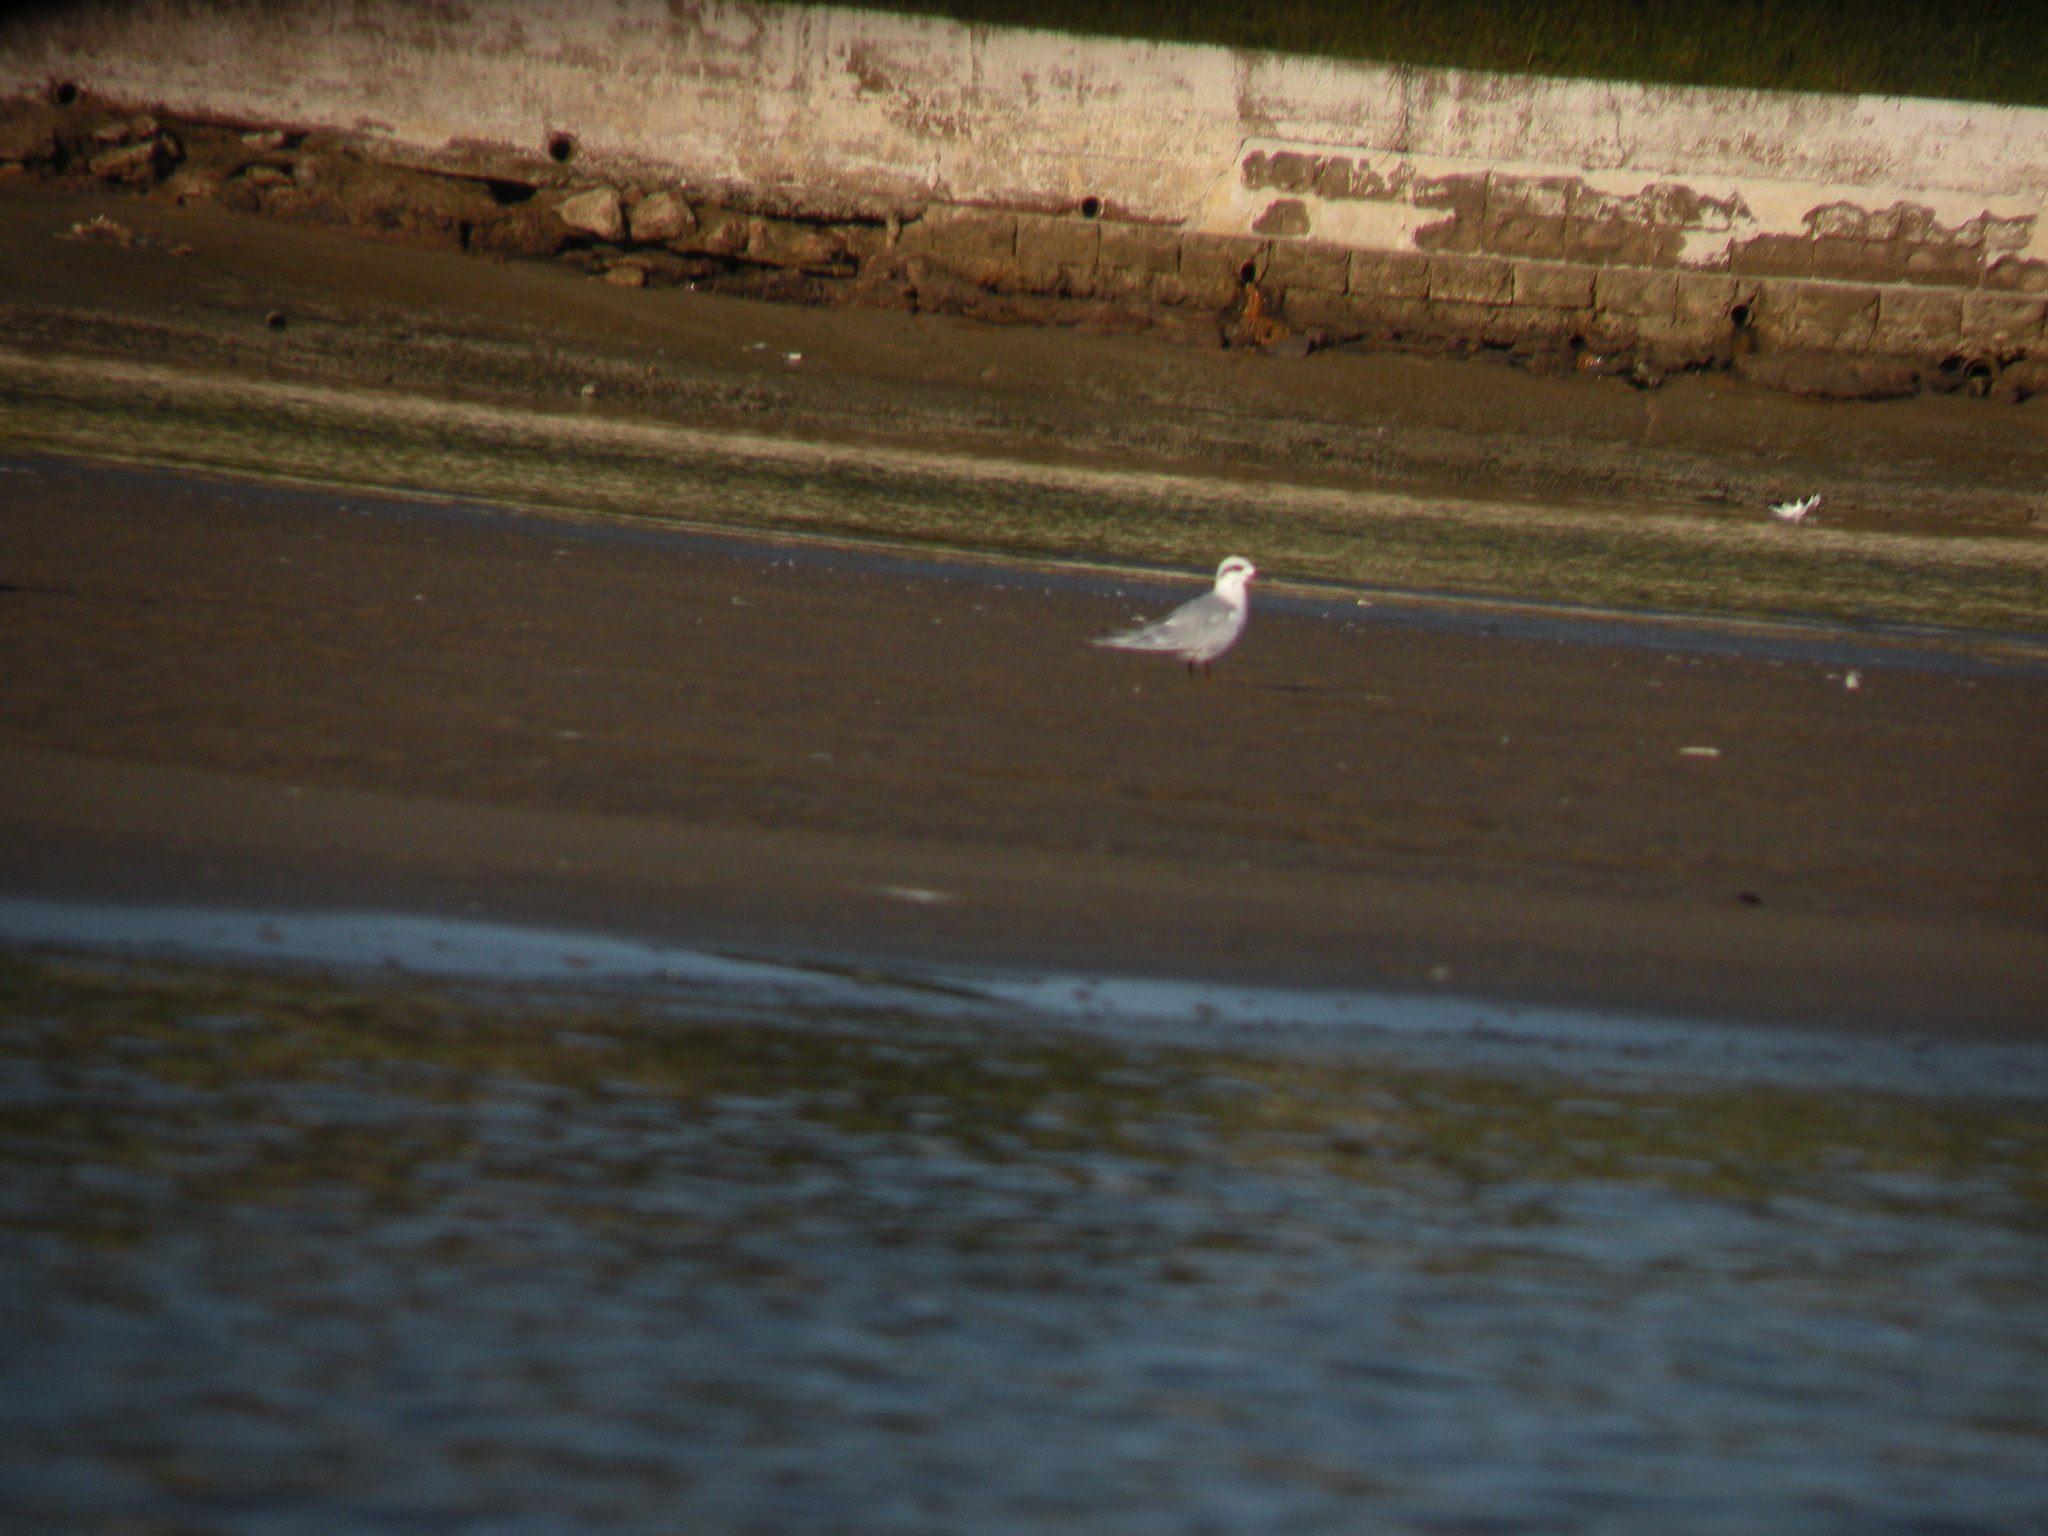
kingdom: Animalia
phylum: Chordata
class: Aves
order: Charadriiformes
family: Laridae
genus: Sterna
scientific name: Sterna trudeaui
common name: Snowy-crowned tern
